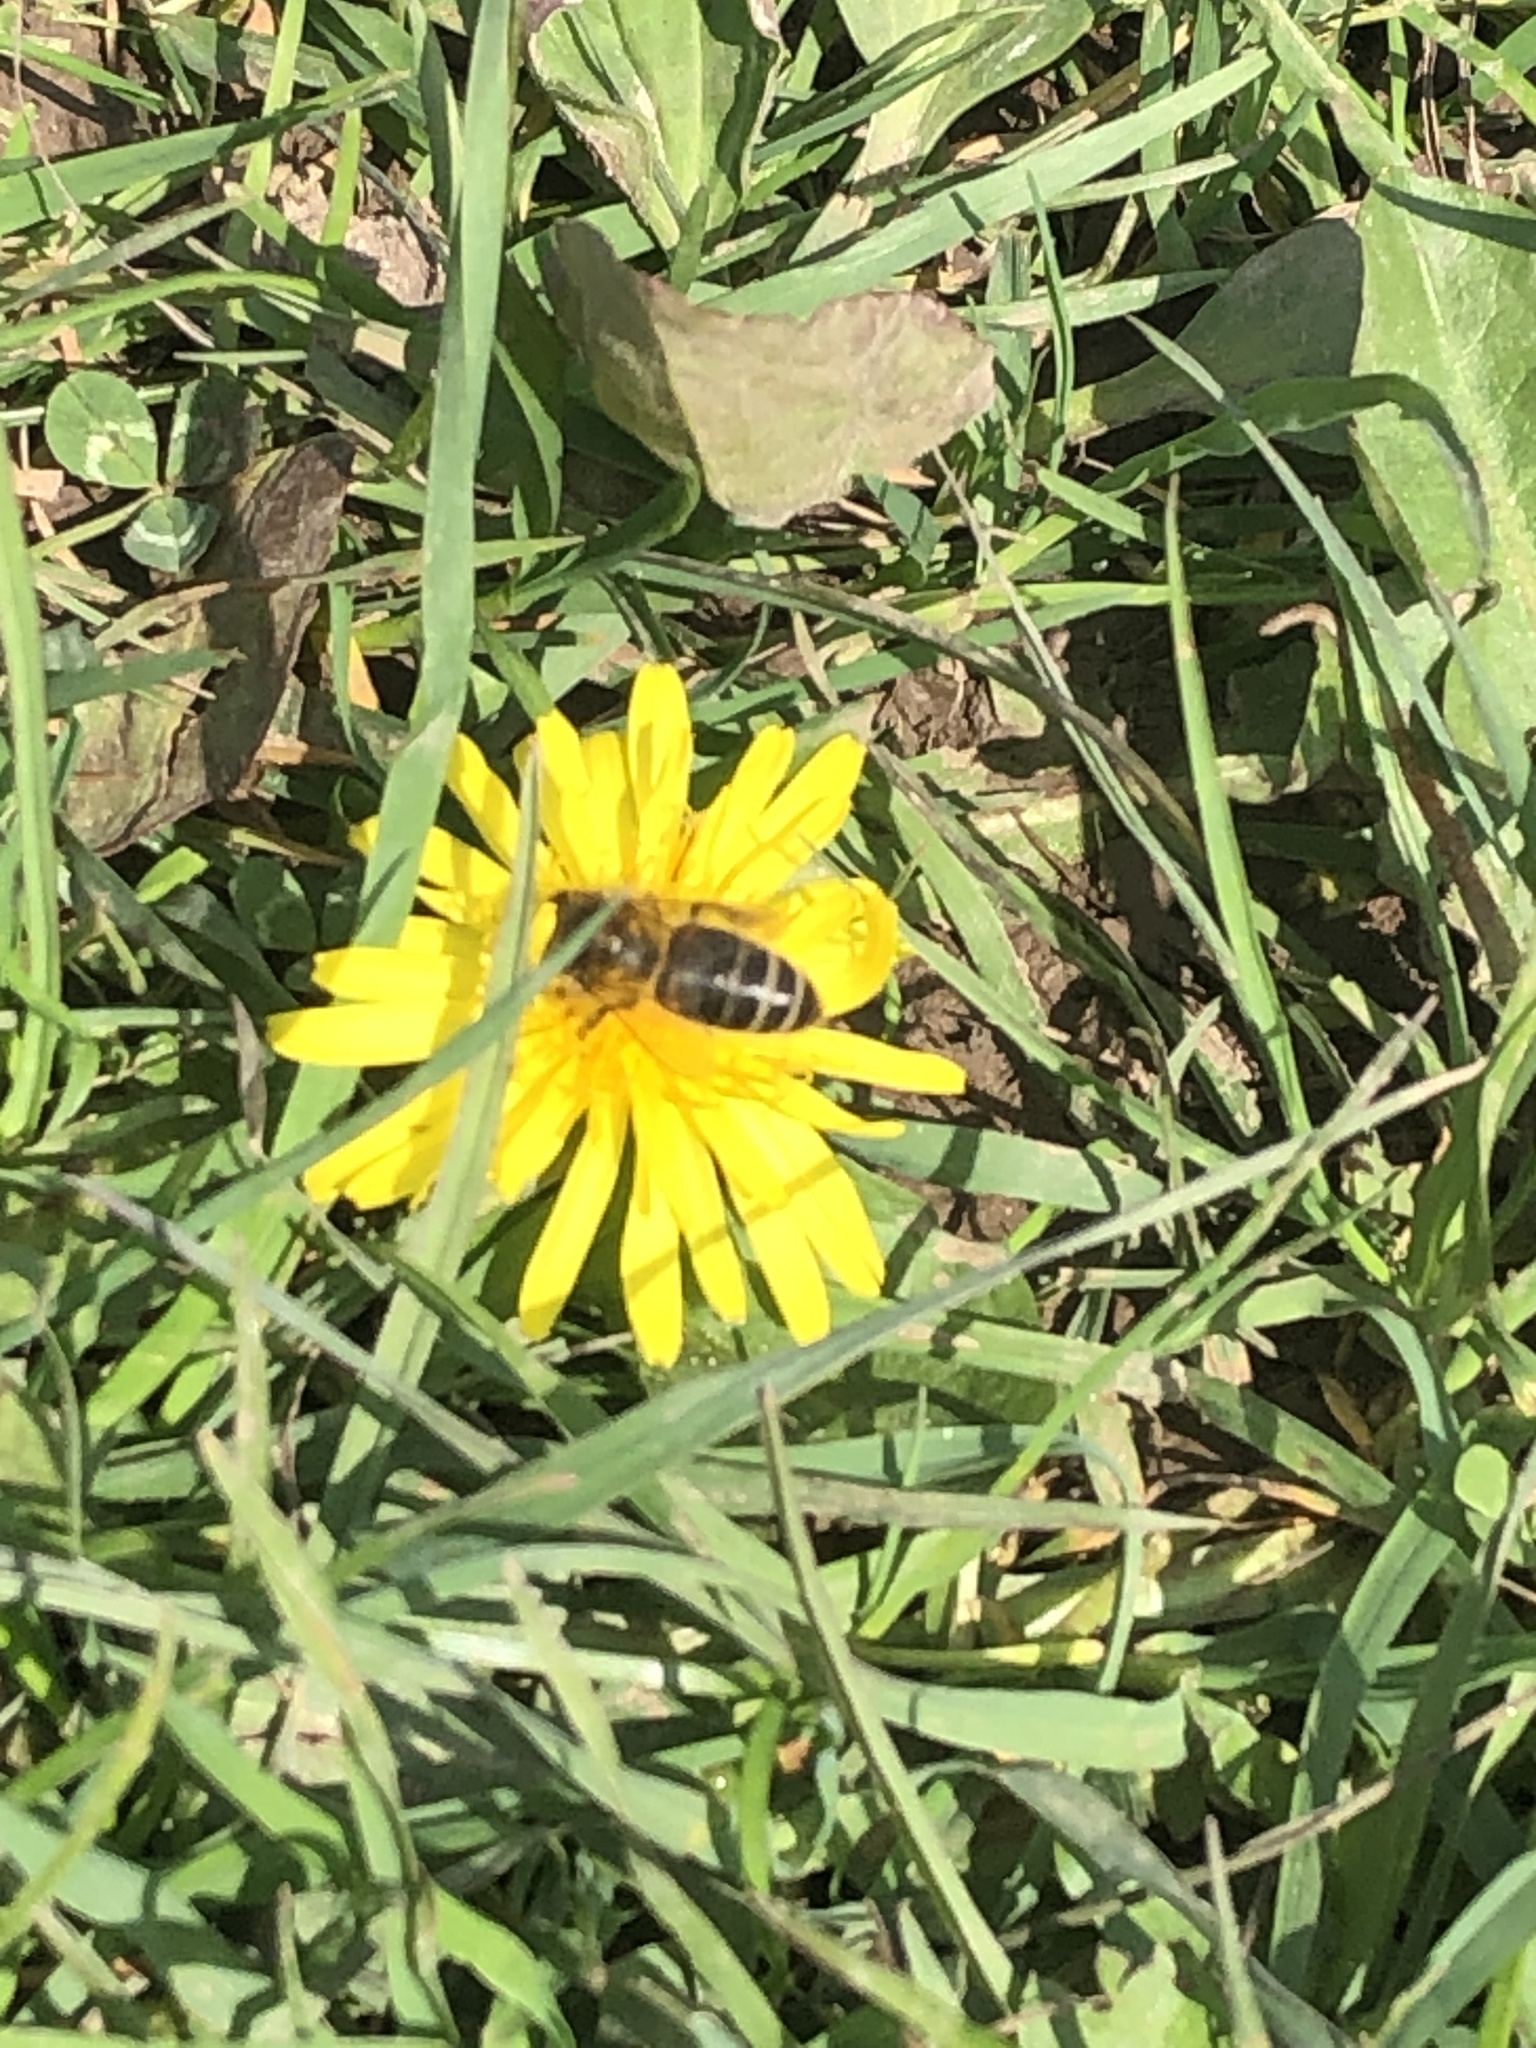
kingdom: Animalia
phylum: Arthropoda
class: Insecta
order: Hymenoptera
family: Apidae
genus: Apis
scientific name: Apis mellifera
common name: Honey bee
